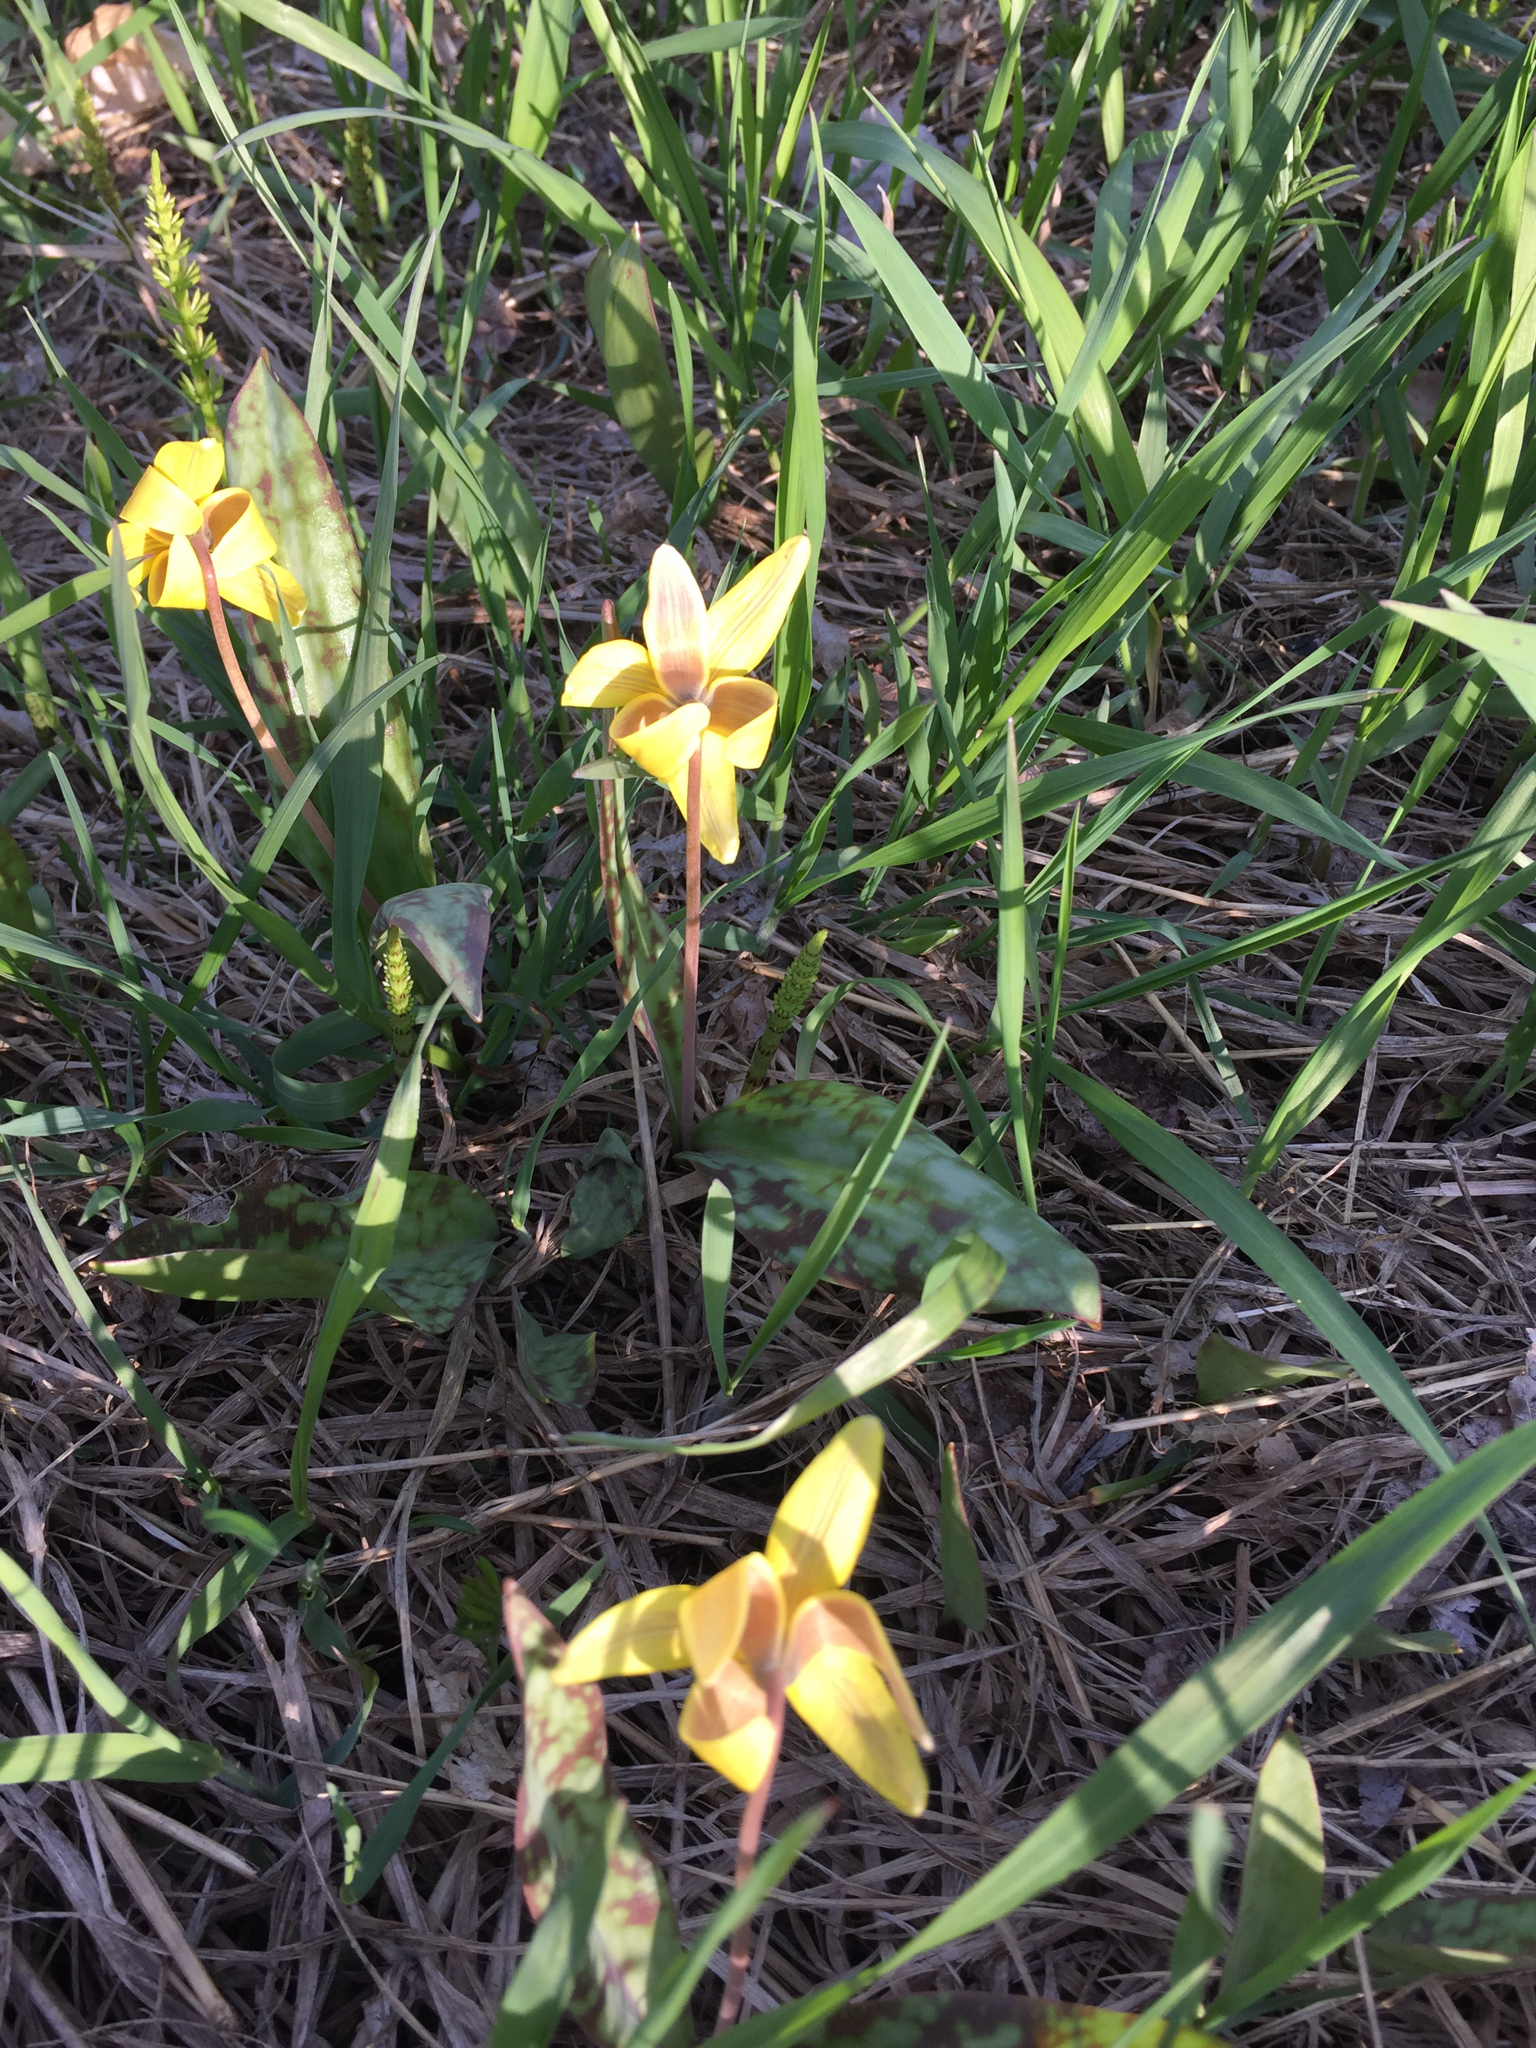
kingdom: Plantae
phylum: Tracheophyta
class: Liliopsida
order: Liliales
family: Liliaceae
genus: Erythronium
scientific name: Erythronium americanum
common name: Yellow adder's-tongue
